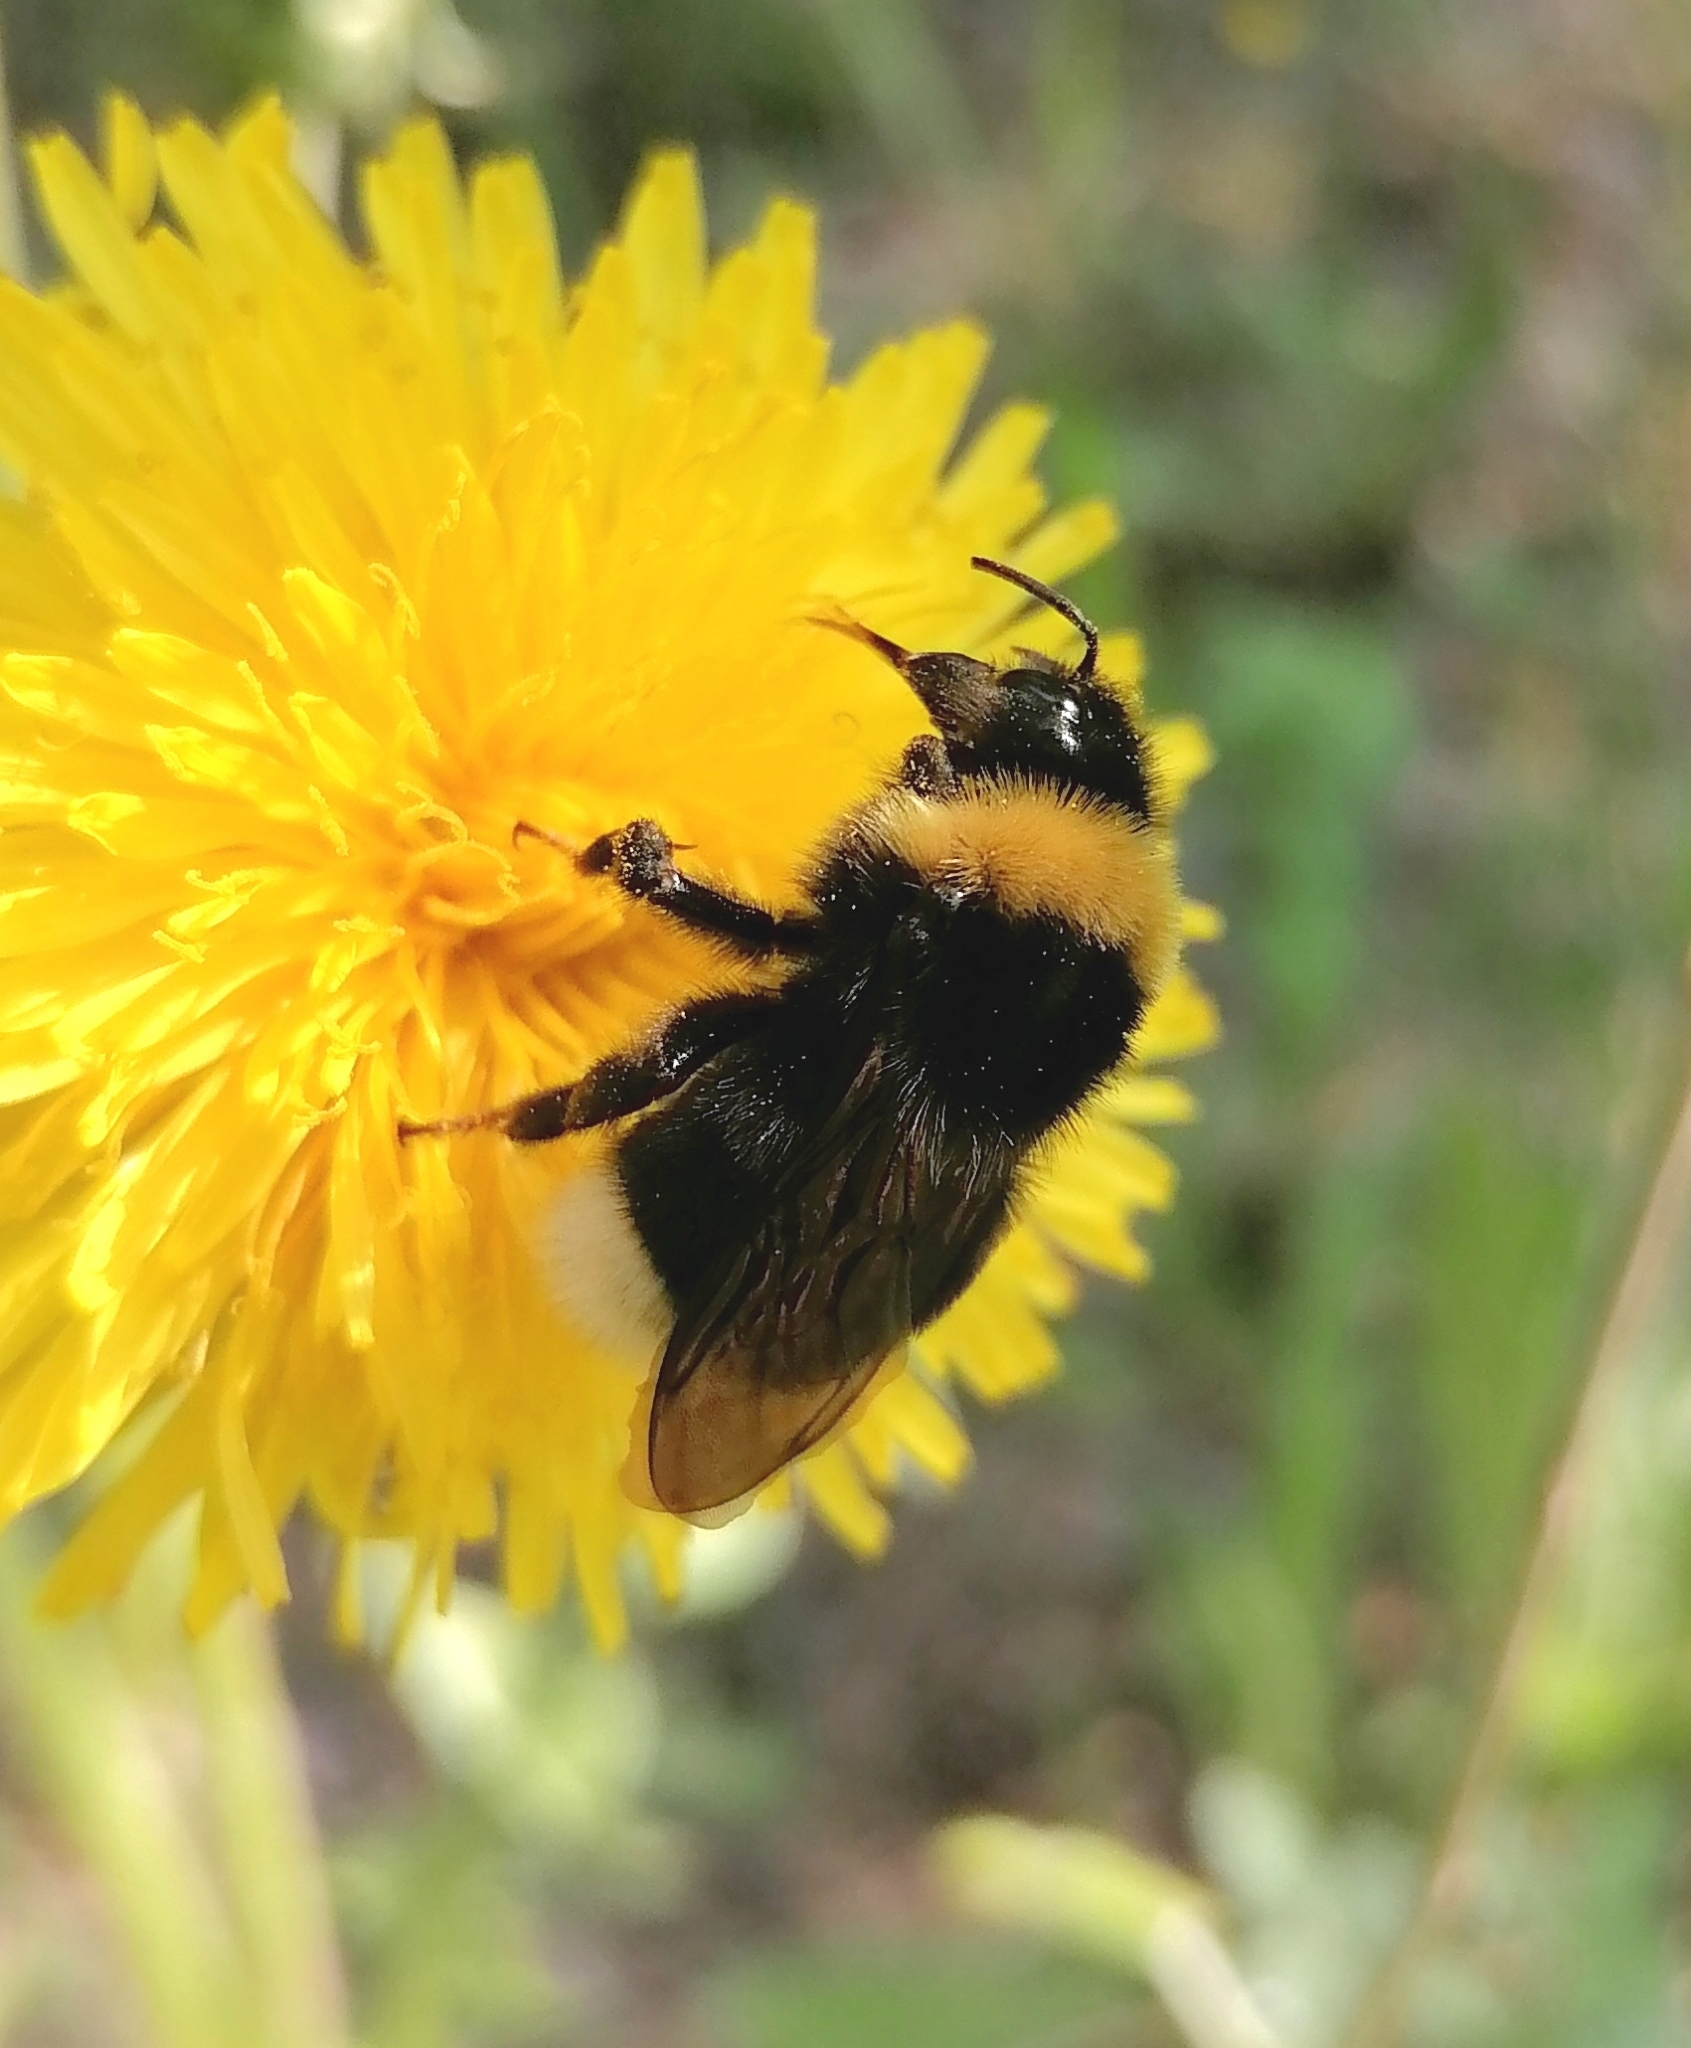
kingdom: Animalia
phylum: Arthropoda
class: Insecta
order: Hymenoptera
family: Apidae
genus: Bombus
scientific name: Bombus bohemicus
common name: Gypsy cuckoo bee
